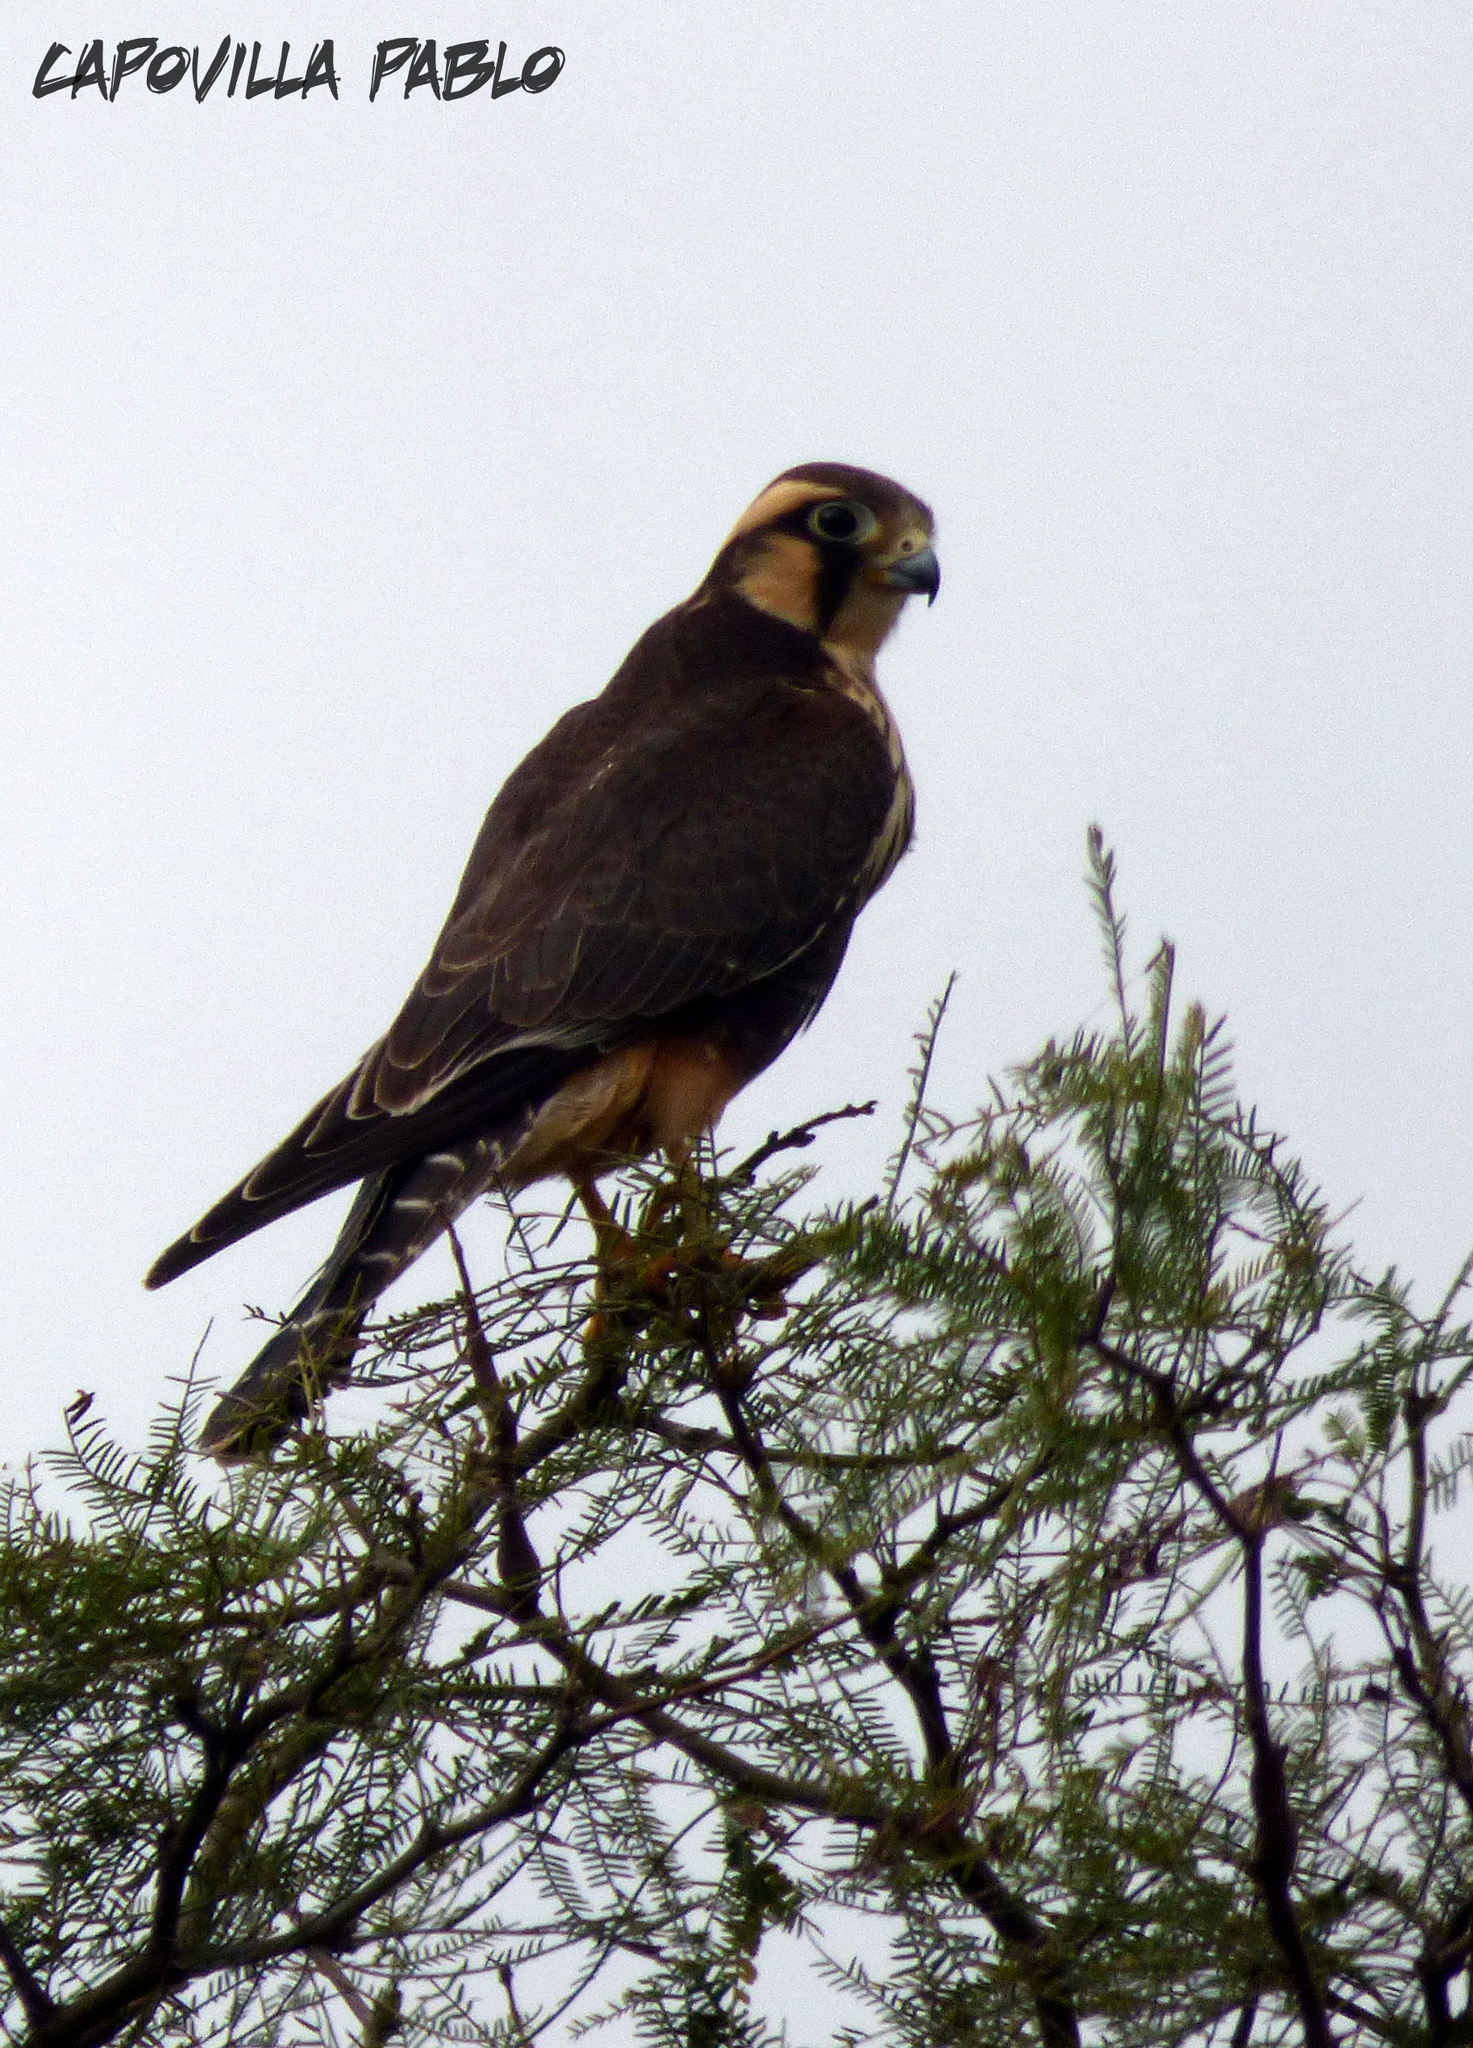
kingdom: Animalia
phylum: Chordata
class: Aves
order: Falconiformes
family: Falconidae
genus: Falco
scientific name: Falco femoralis
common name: Aplomado falcon
